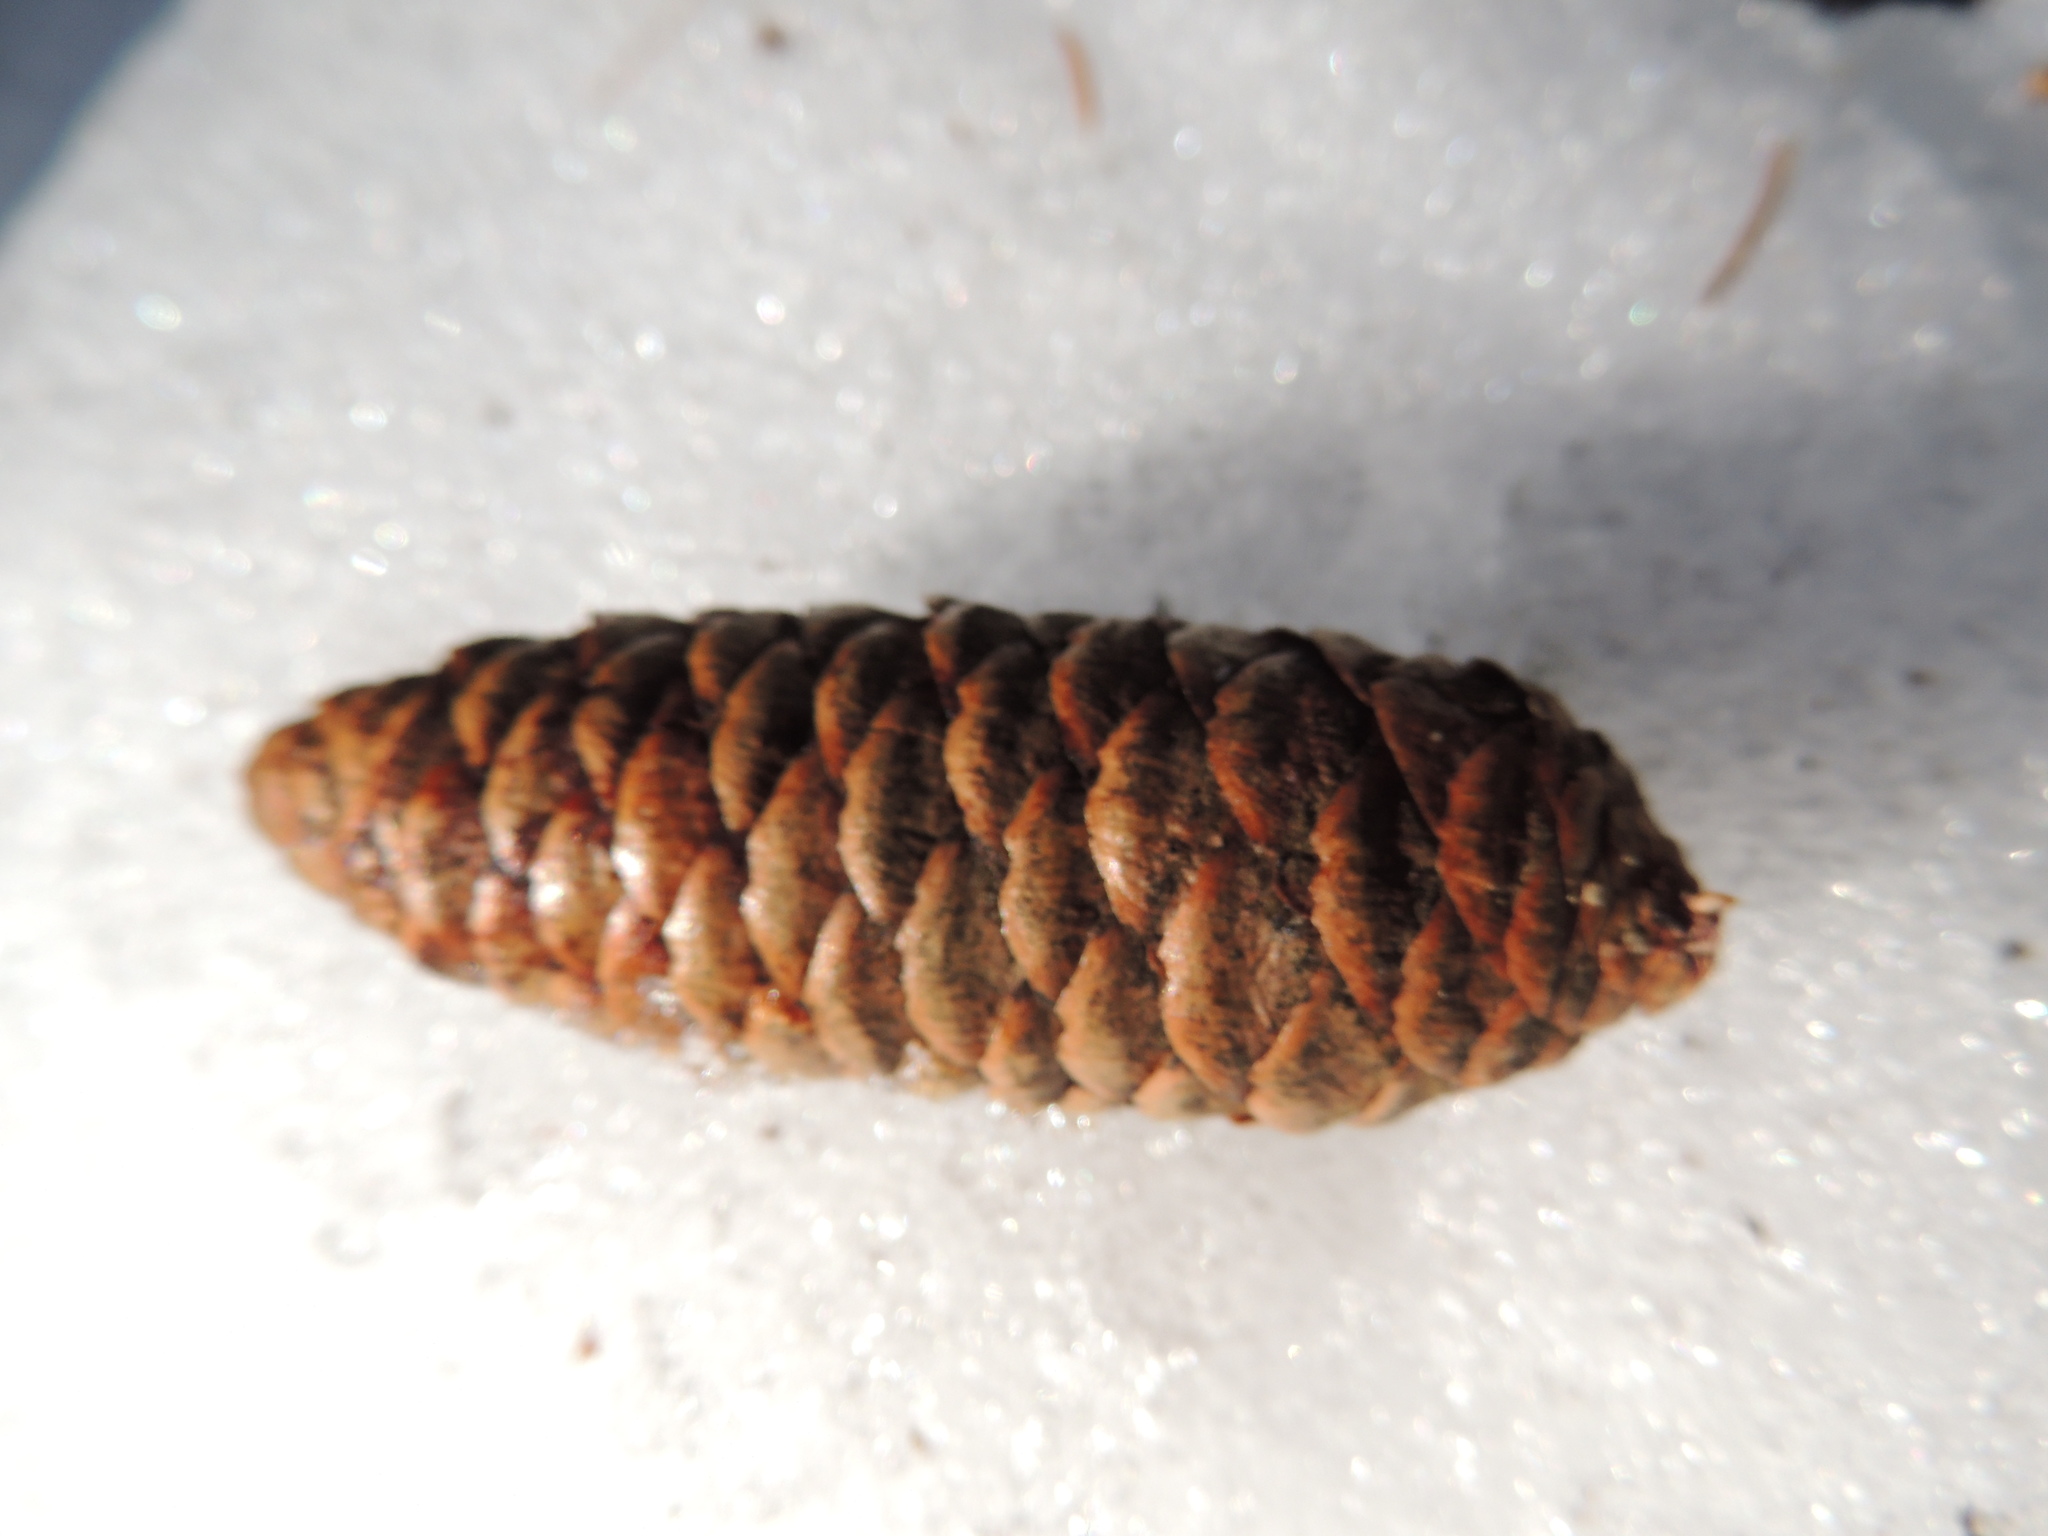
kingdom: Plantae
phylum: Tracheophyta
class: Pinopsida
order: Pinales
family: Pinaceae
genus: Picea
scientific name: Picea obovata
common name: Siberian spruce
